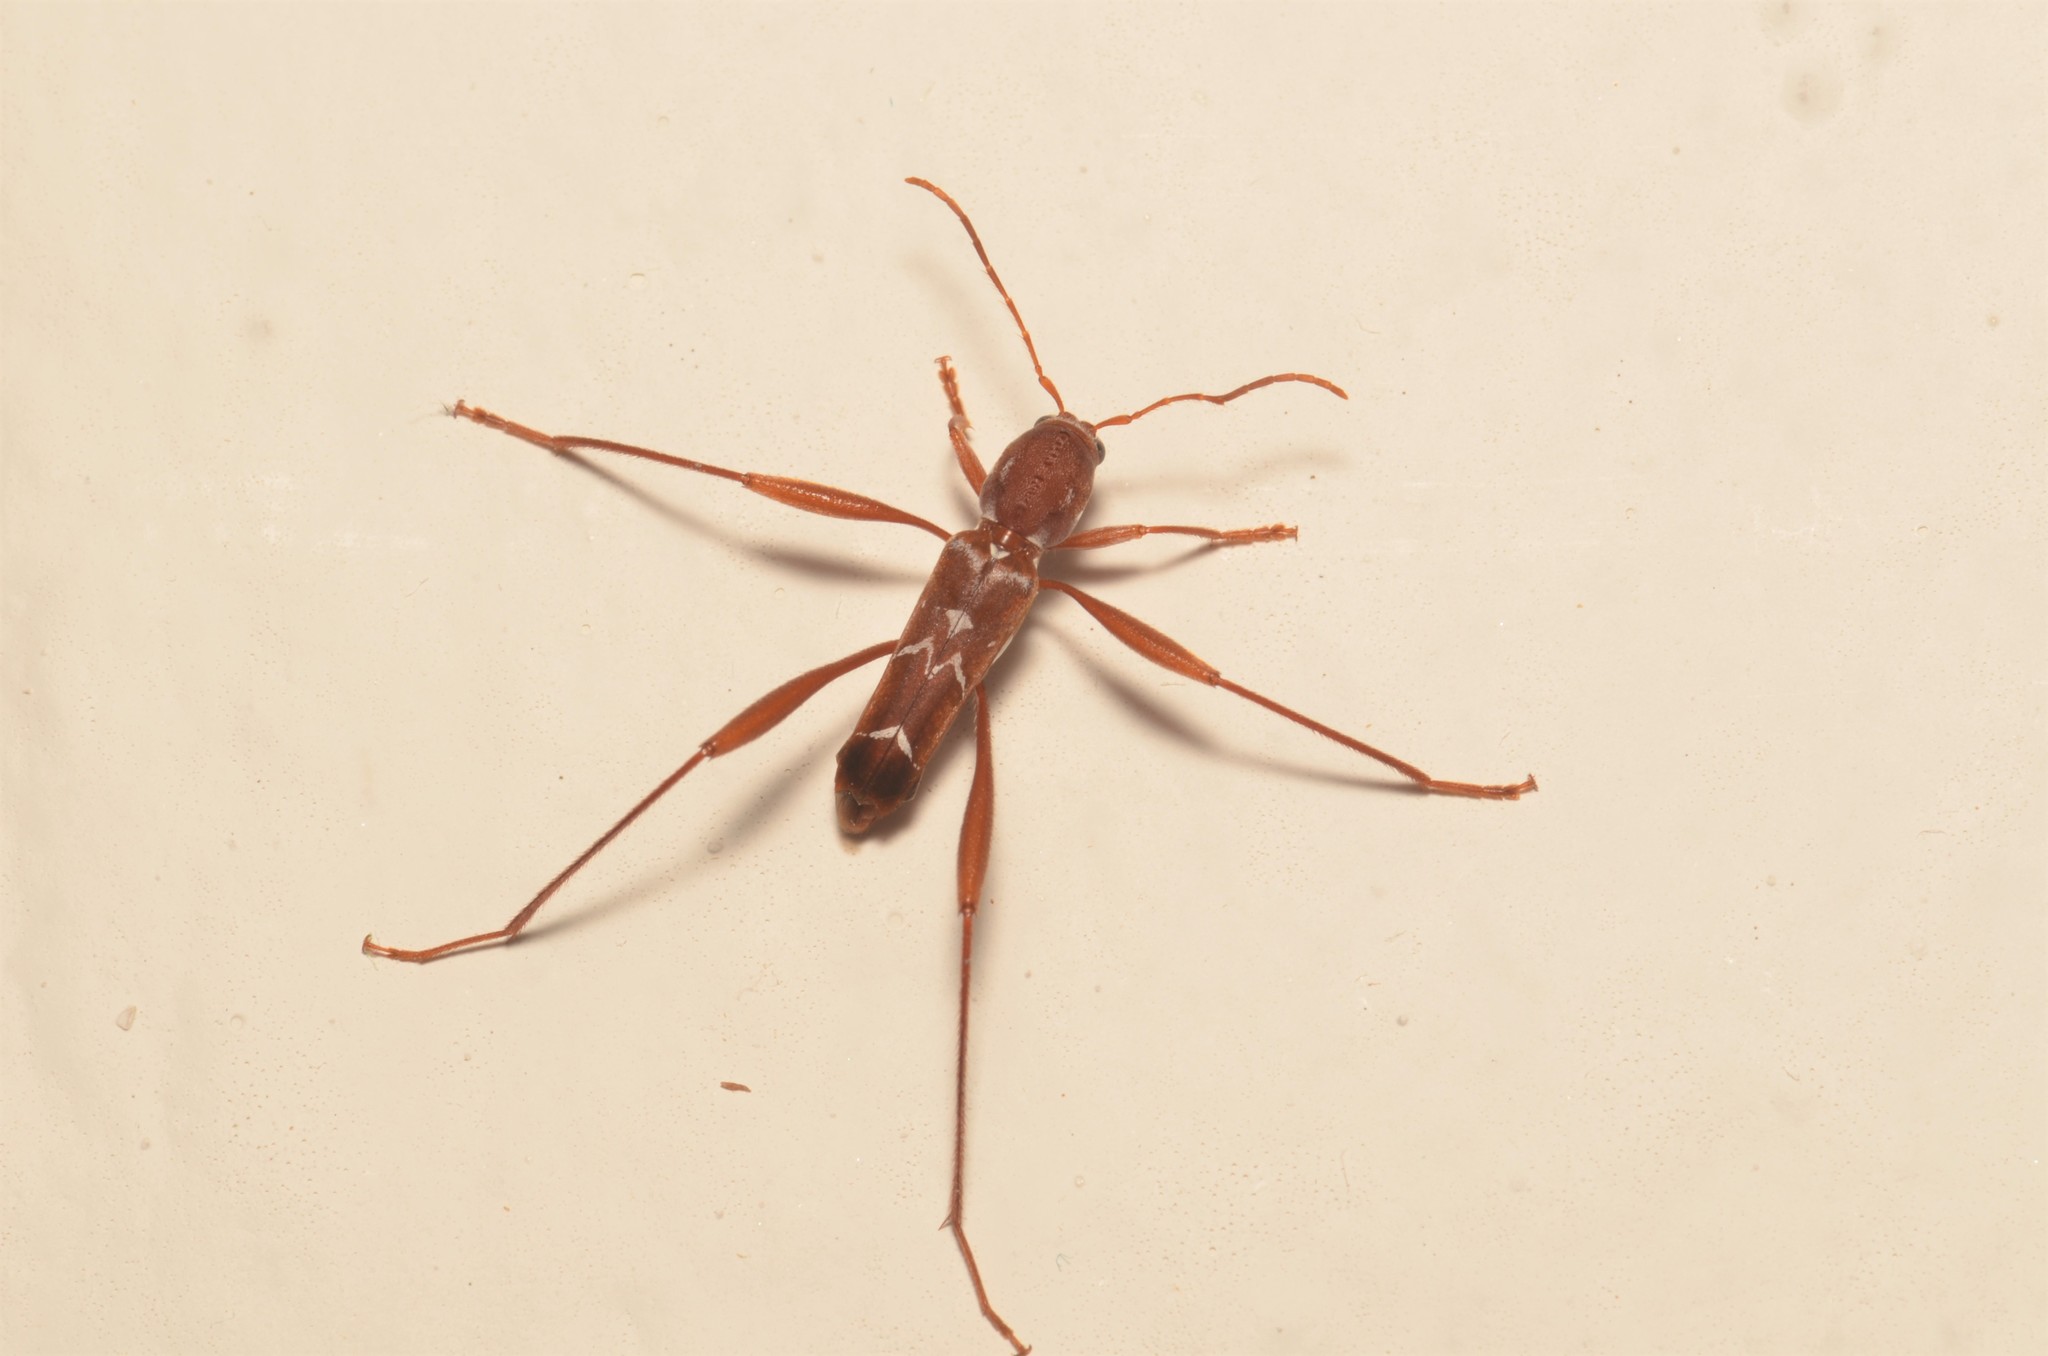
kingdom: Animalia
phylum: Arthropoda
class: Insecta
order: Coleoptera
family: Cerambycidae
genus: Neoclytus
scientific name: Neoclytus cacicus
